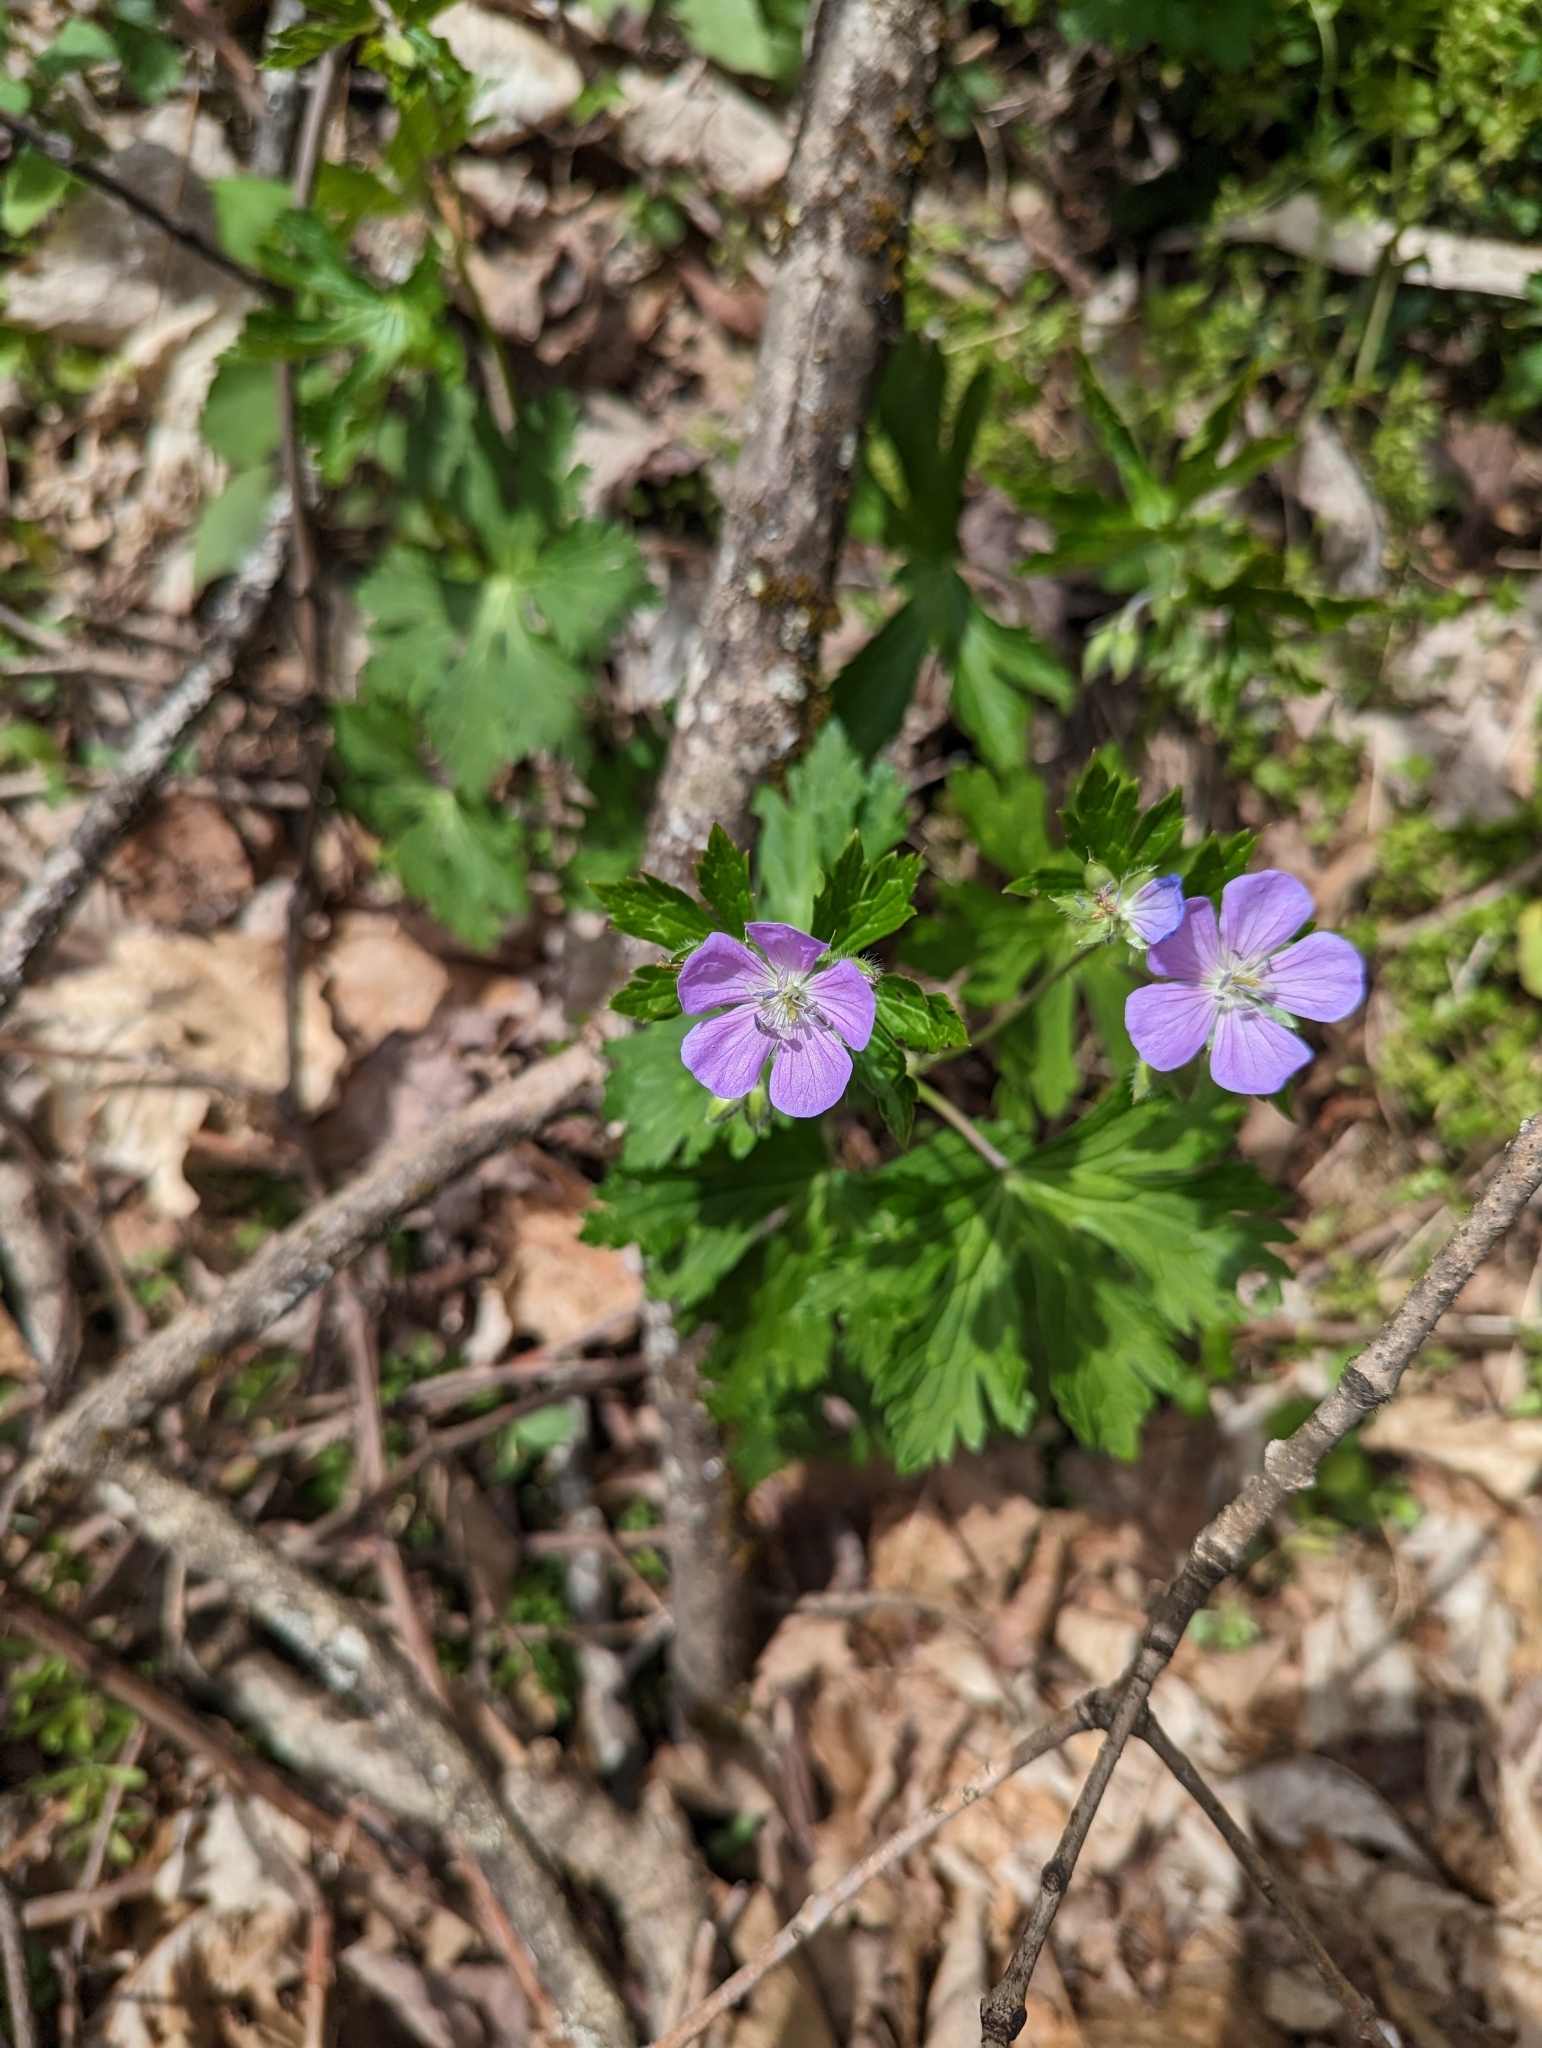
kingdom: Plantae
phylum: Tracheophyta
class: Magnoliopsida
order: Geraniales
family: Geraniaceae
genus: Geranium
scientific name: Geranium maculatum
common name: Spotted geranium
